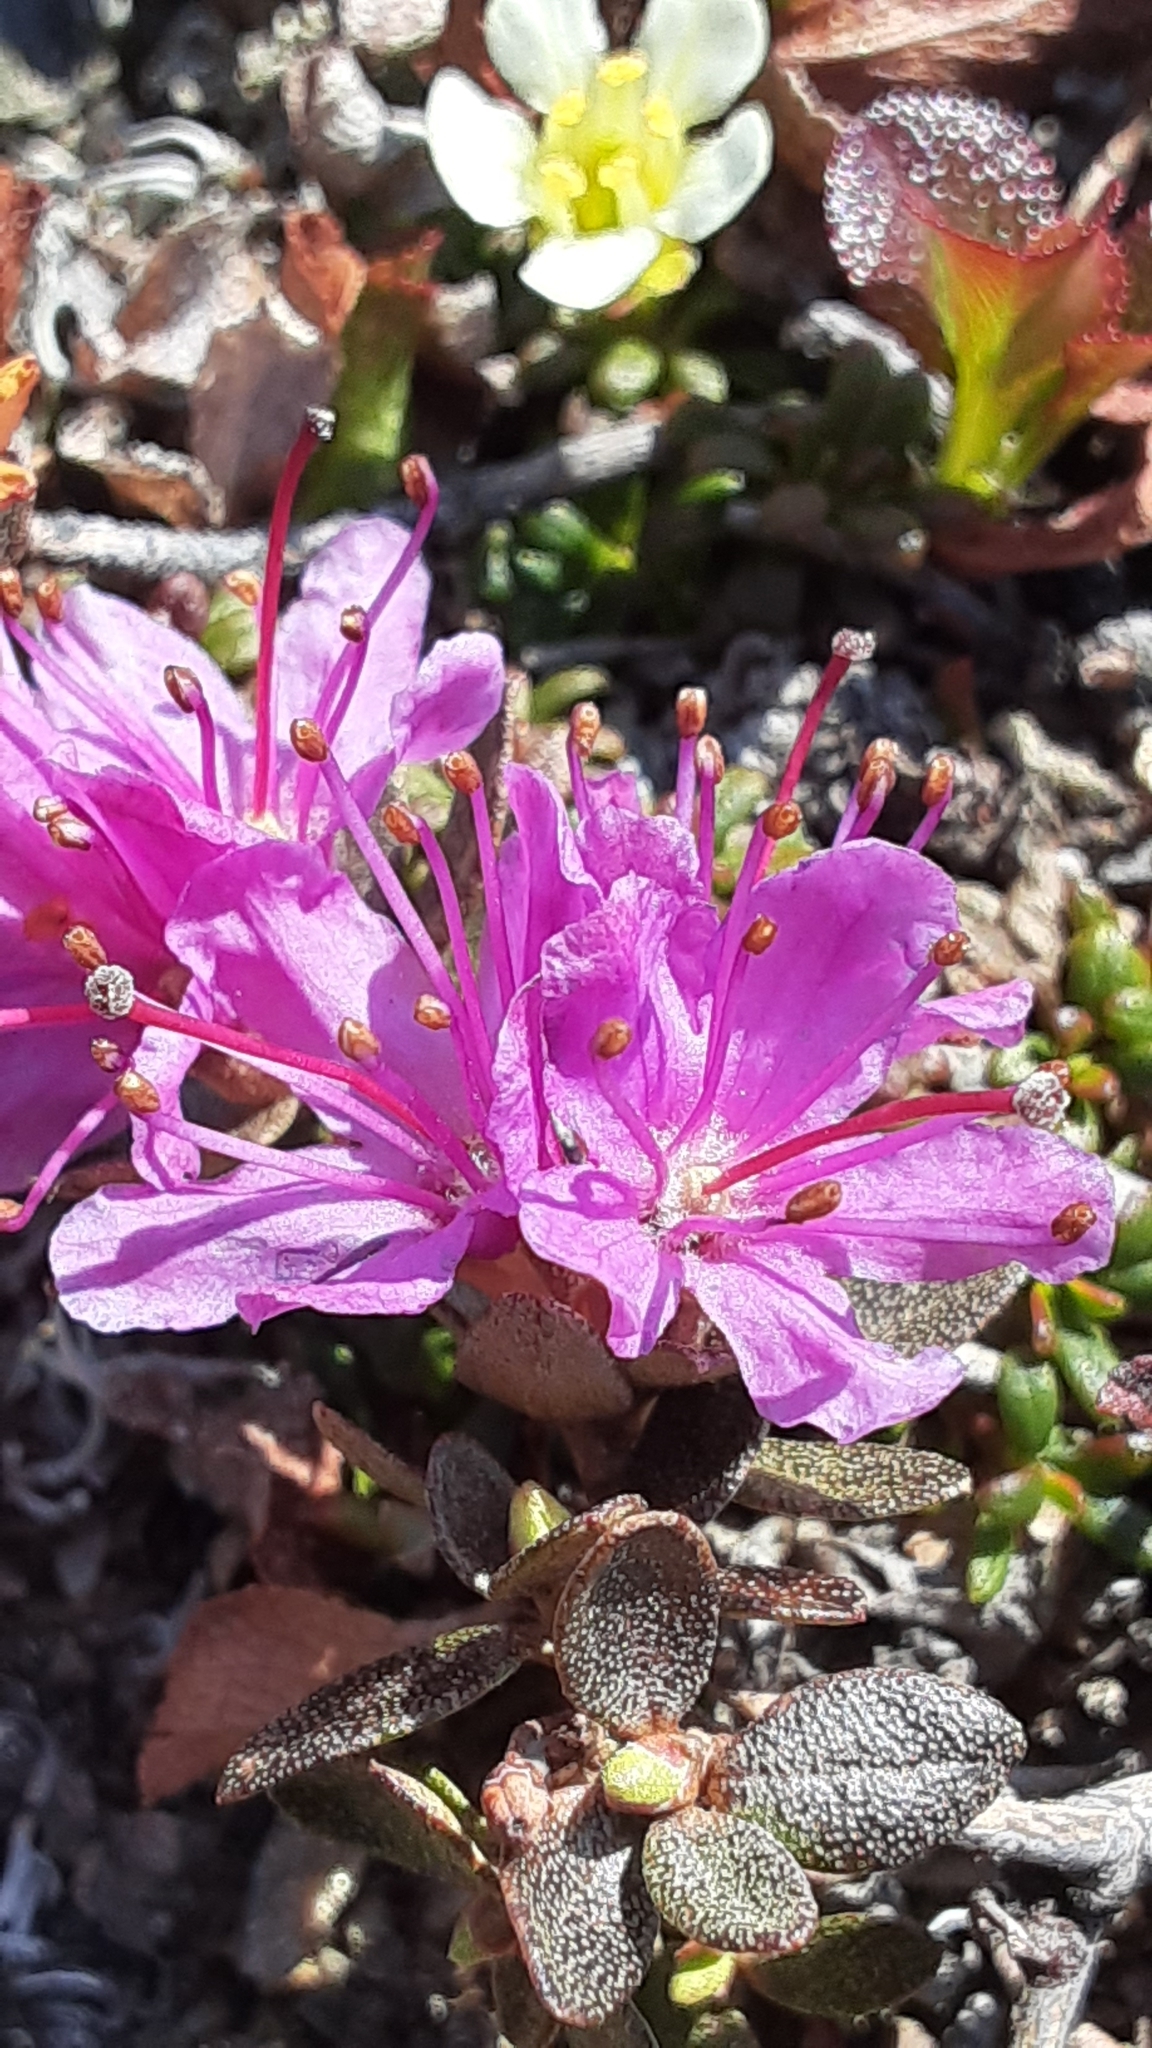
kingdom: Plantae
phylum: Tracheophyta
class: Magnoliopsida
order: Ericales
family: Ericaceae
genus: Rhododendron
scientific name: Rhododendron lapponicum
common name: Lapland rhododendron
